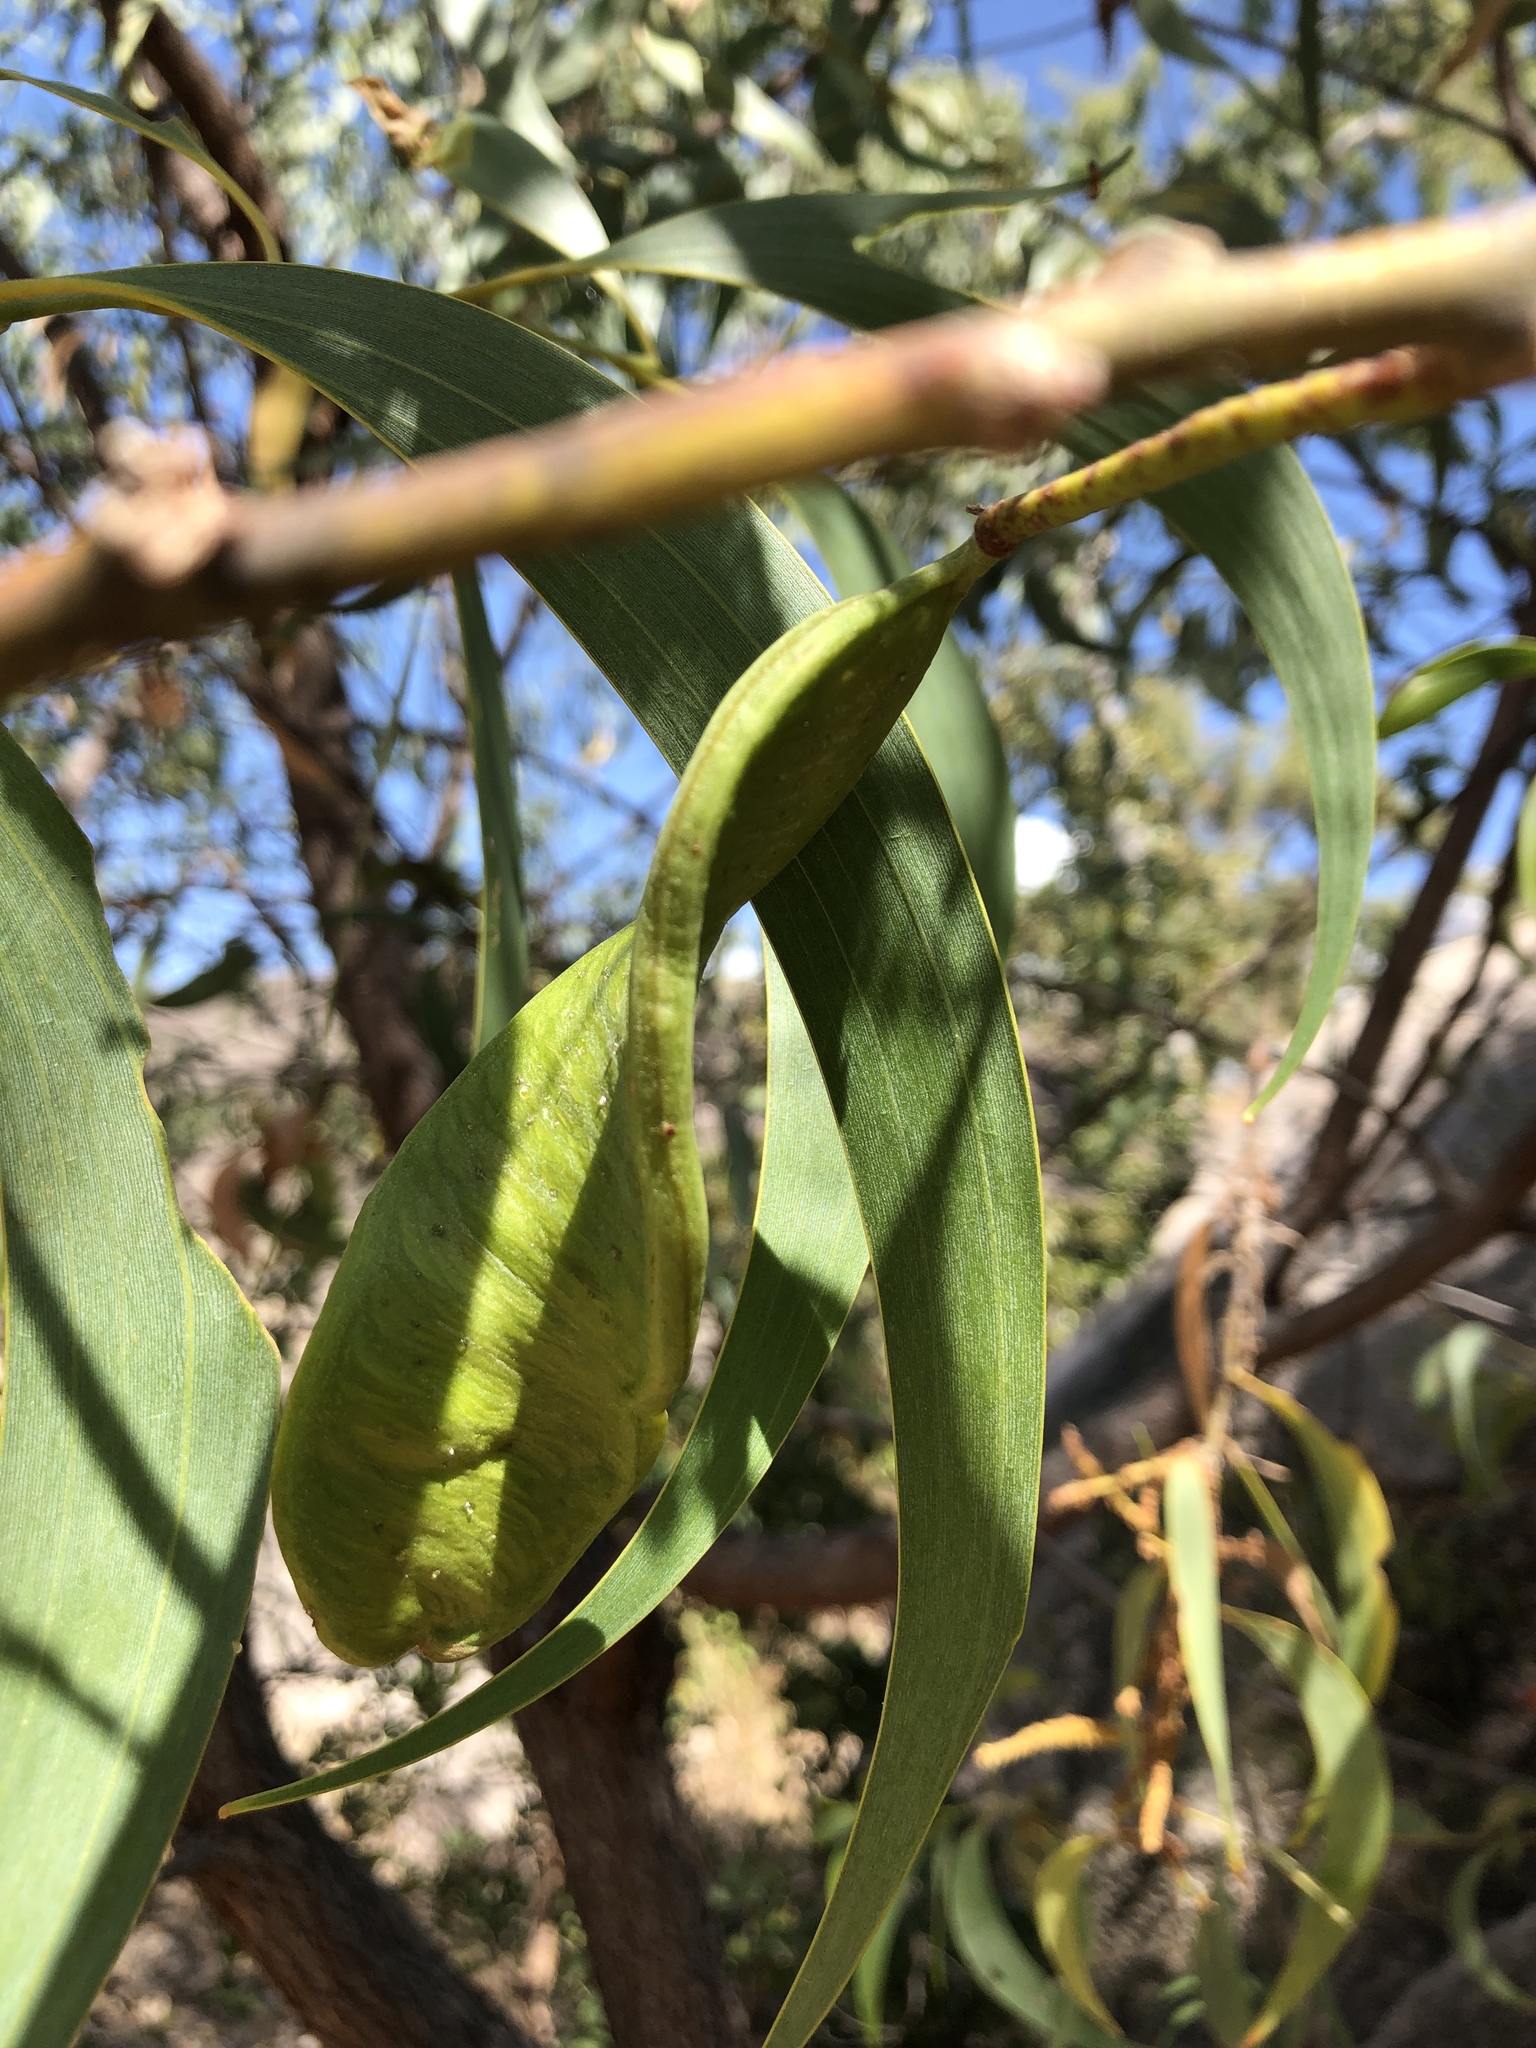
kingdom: Plantae
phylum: Tracheophyta
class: Magnoliopsida
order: Fabales
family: Fabaceae
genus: Acacia
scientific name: Acacia crassicarpa
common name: Northern wattle
